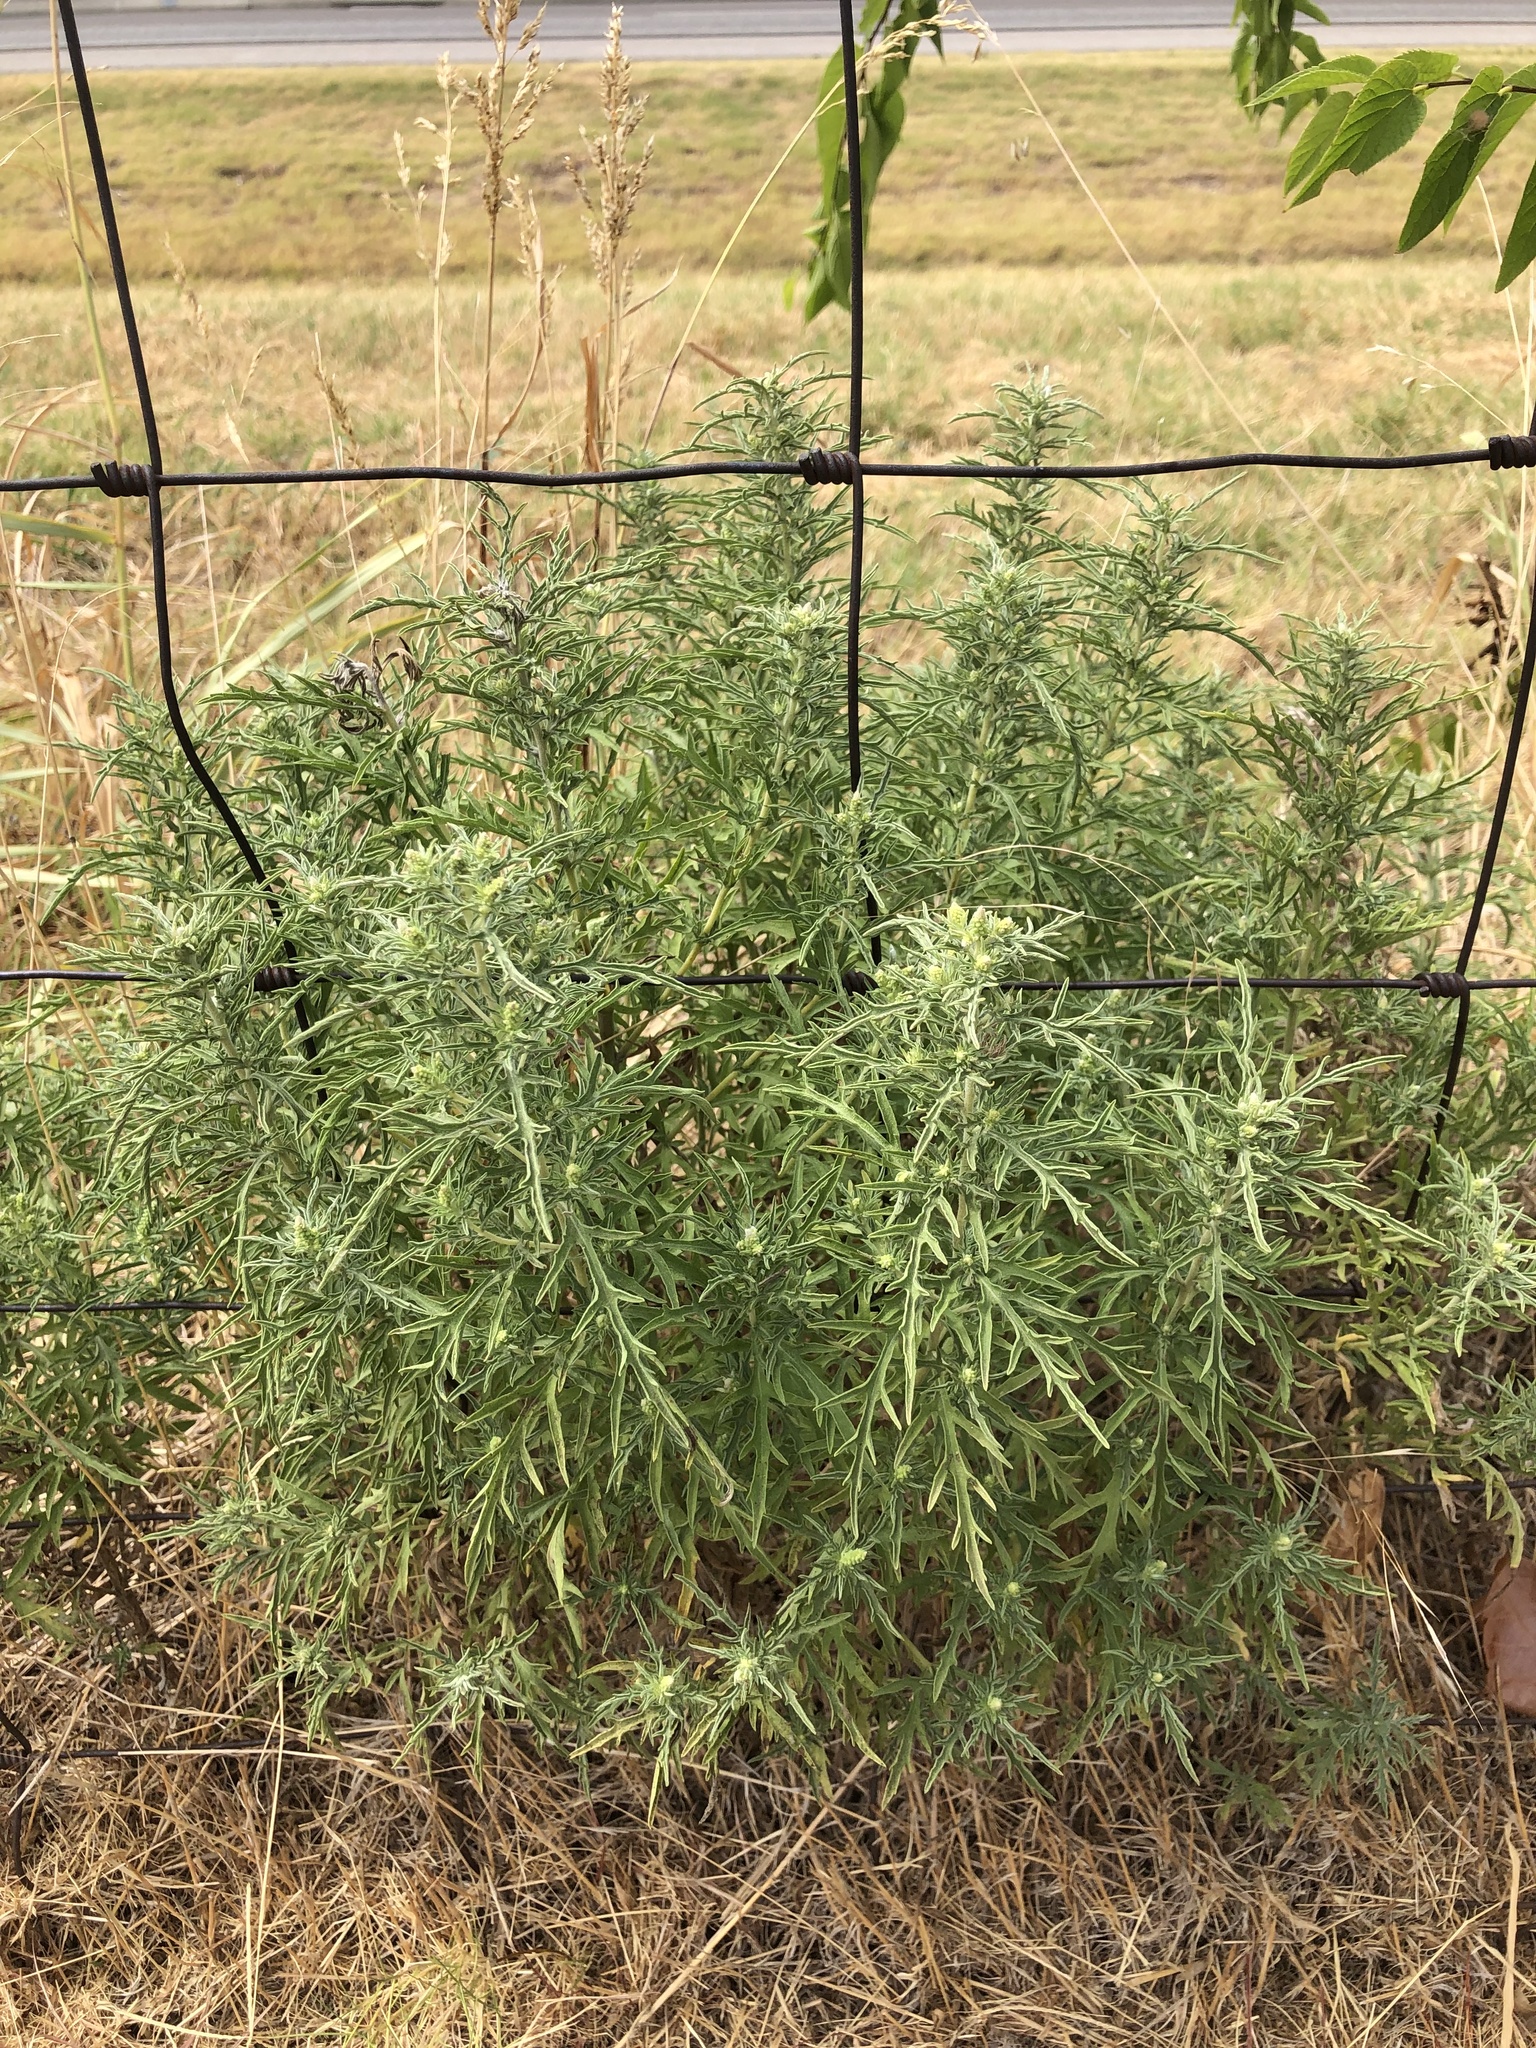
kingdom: Plantae
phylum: Tracheophyta
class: Magnoliopsida
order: Asterales
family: Asteraceae
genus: Ambrosia
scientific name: Ambrosia psilostachya
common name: Perennial ragweed
